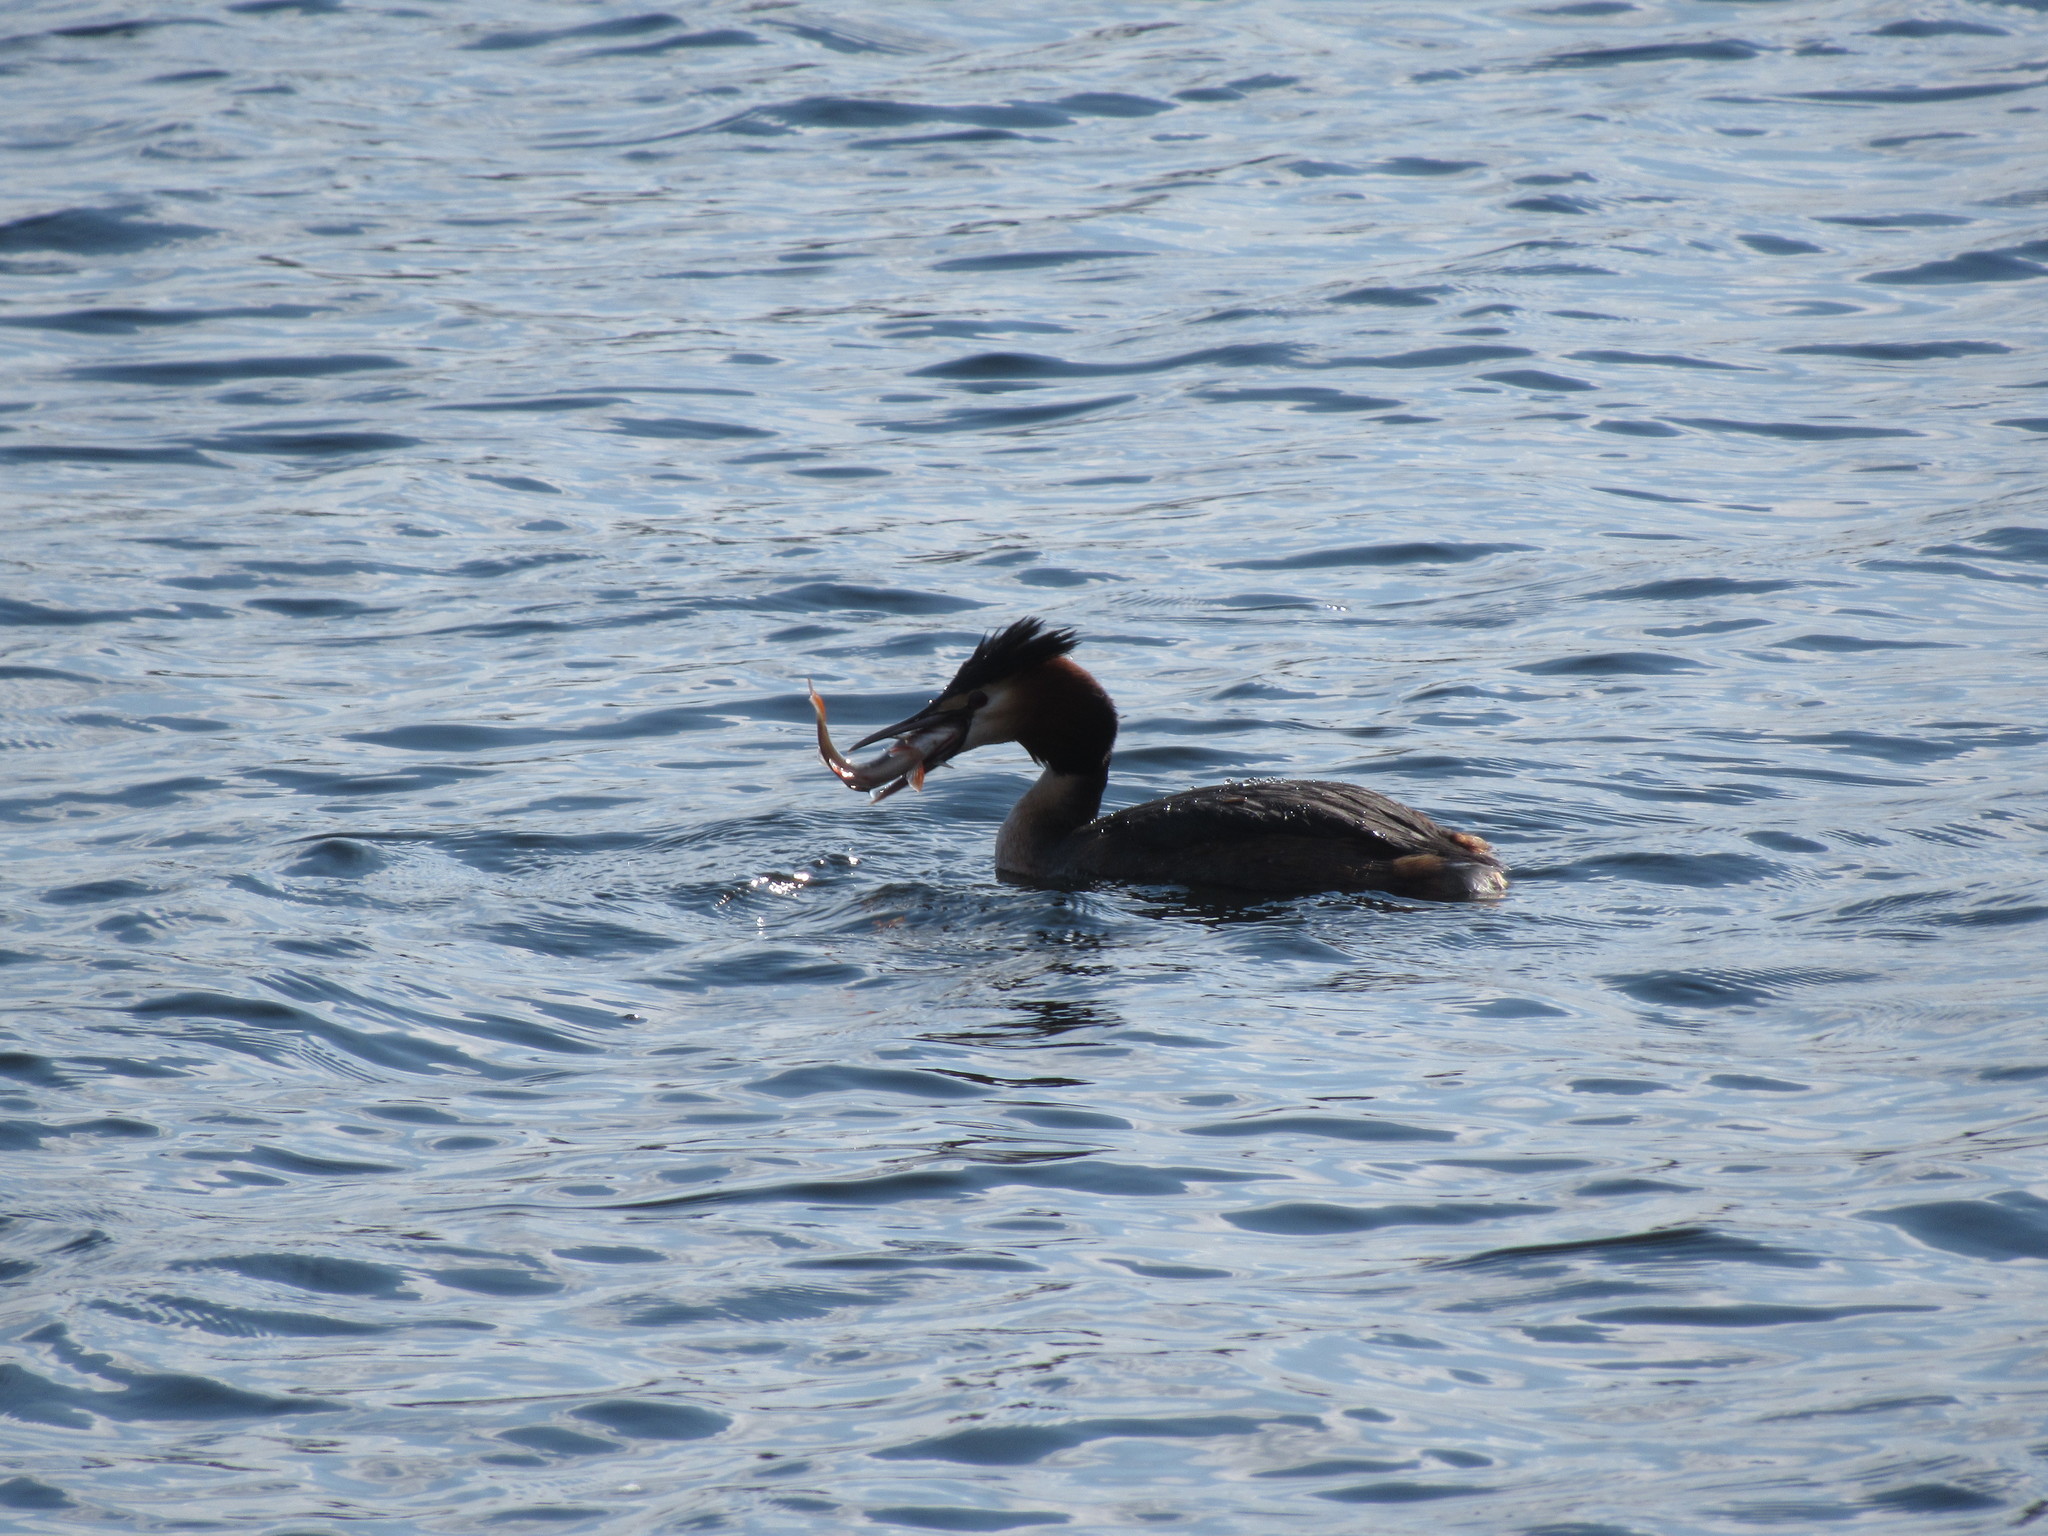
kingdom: Animalia
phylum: Chordata
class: Aves
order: Podicipediformes
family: Podicipedidae
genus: Podiceps
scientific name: Podiceps cristatus
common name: Great crested grebe
